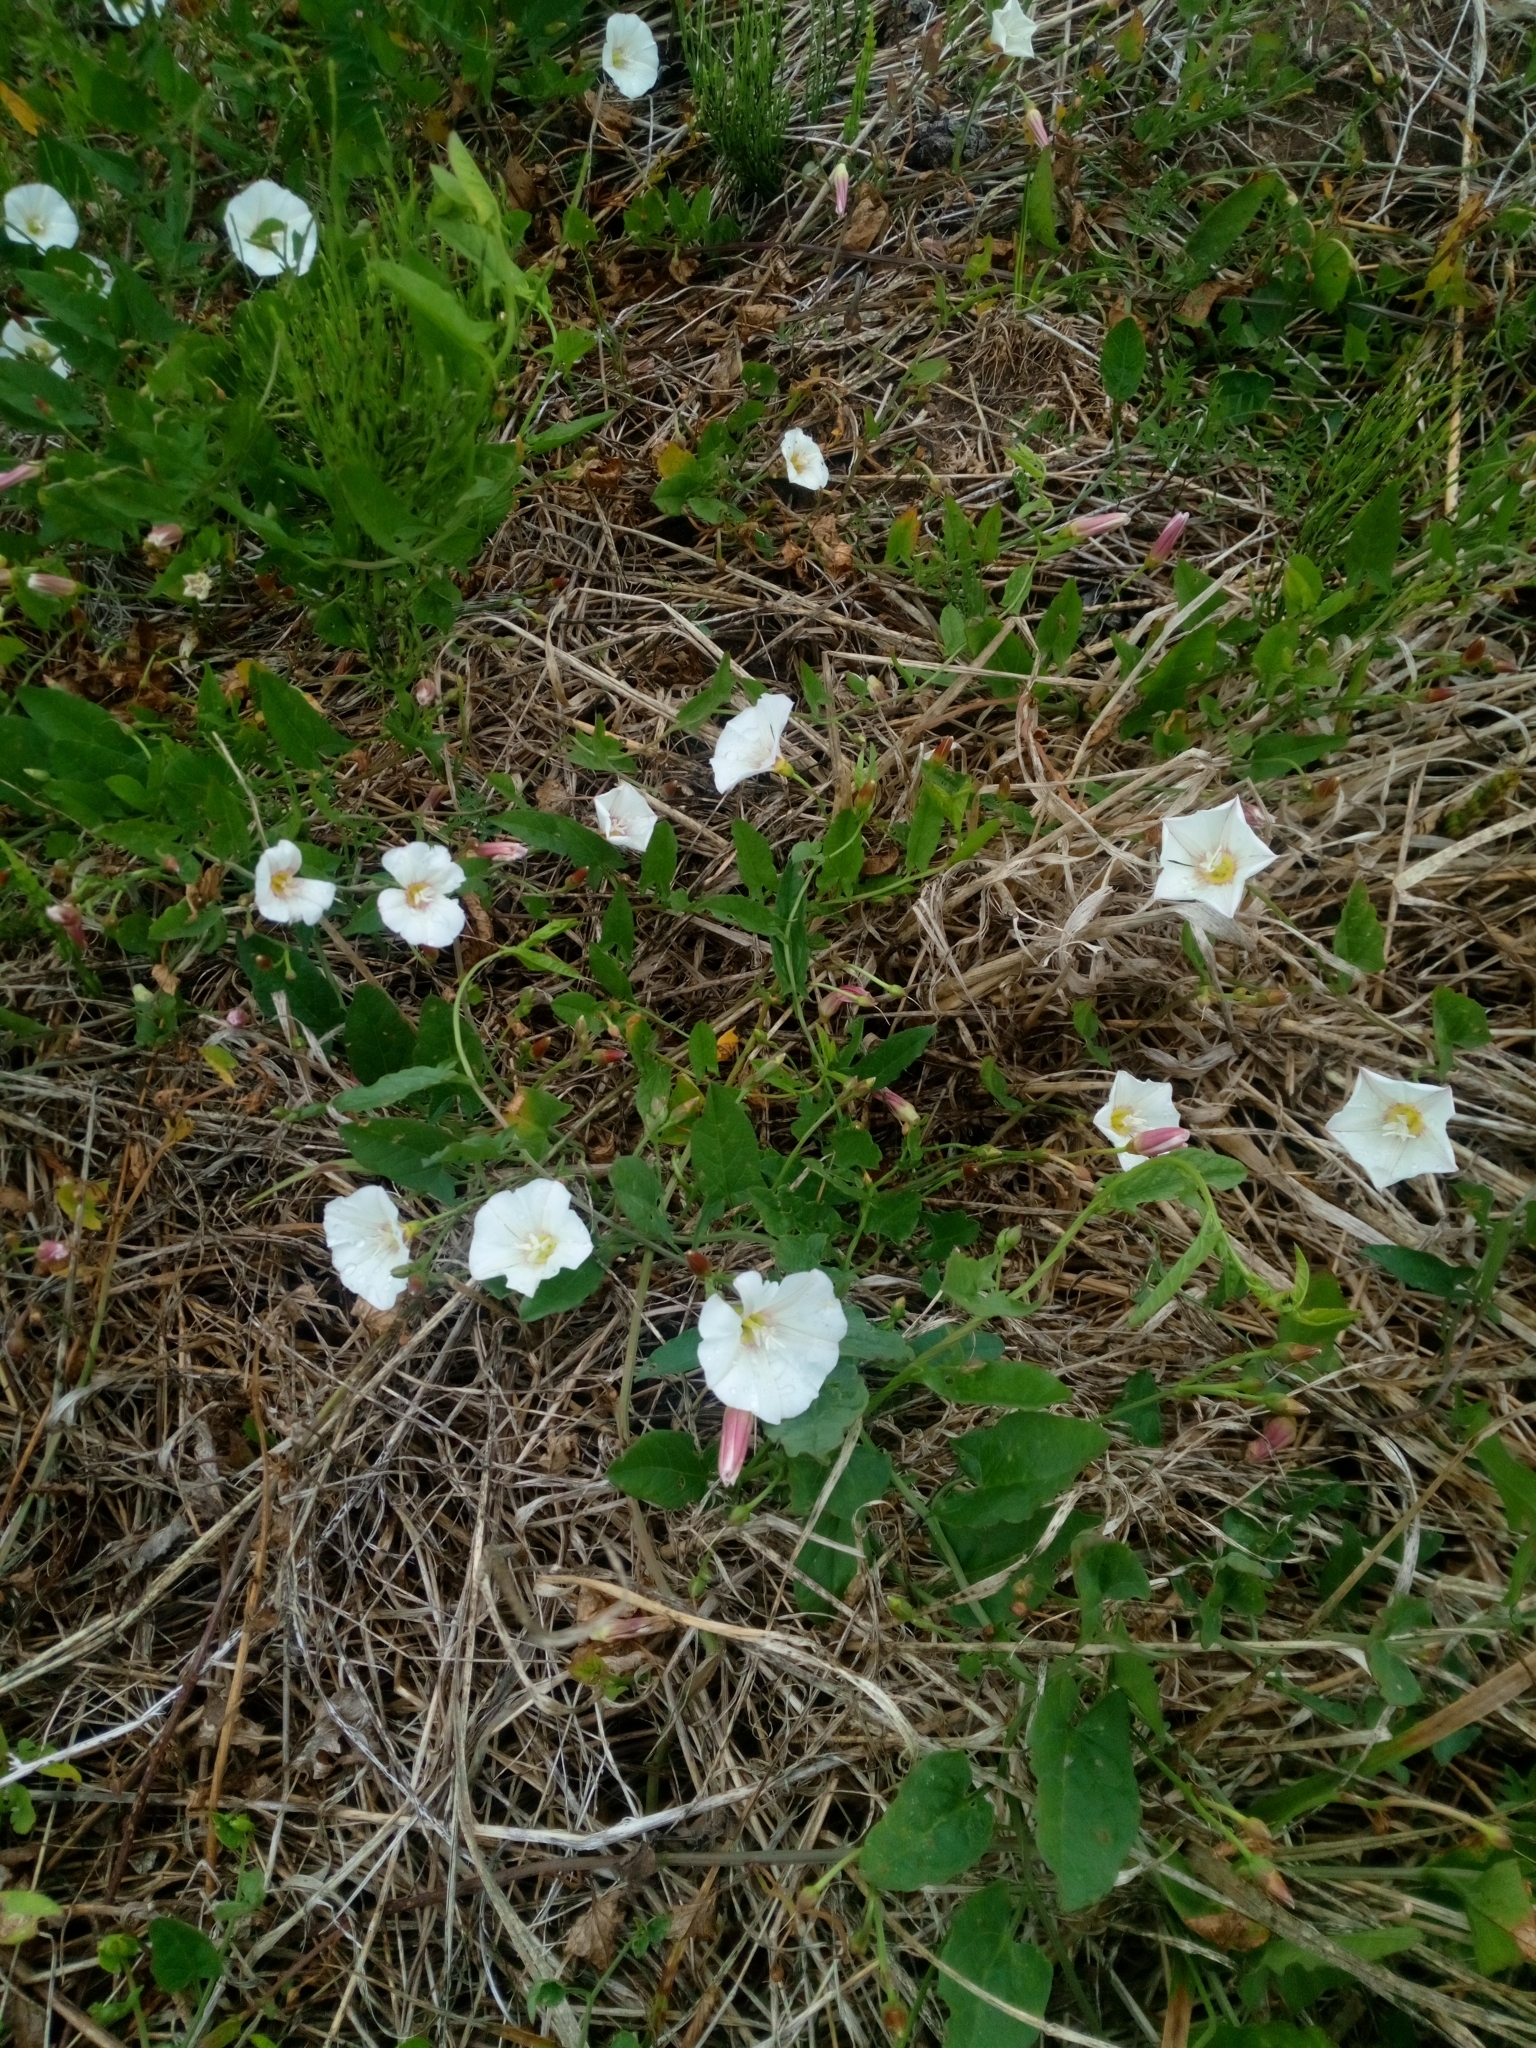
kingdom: Plantae
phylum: Tracheophyta
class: Magnoliopsida
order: Solanales
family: Convolvulaceae
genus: Convolvulus
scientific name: Convolvulus arvensis
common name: Field bindweed
